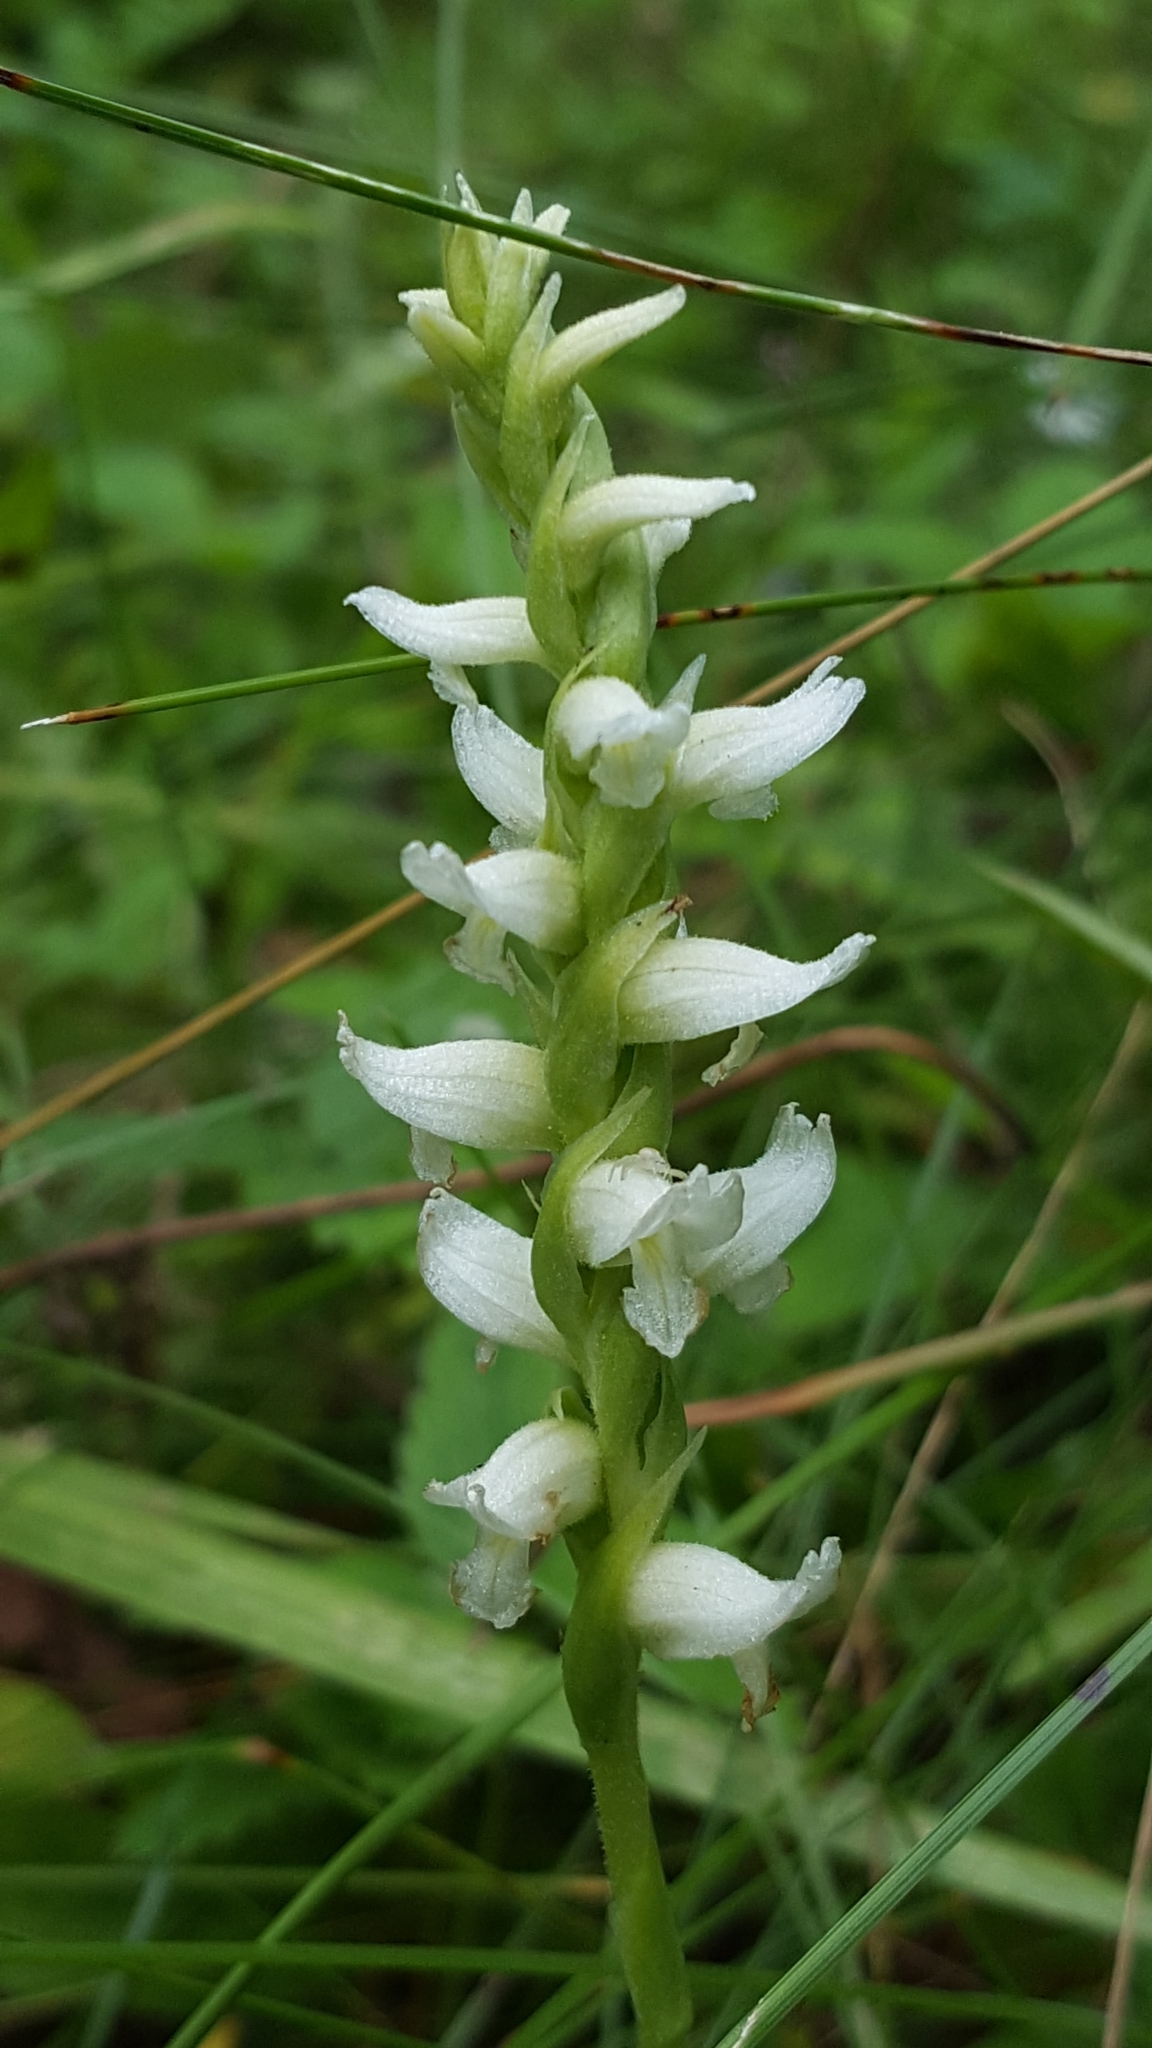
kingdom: Plantae
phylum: Tracheophyta
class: Liliopsida
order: Asparagales
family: Orchidaceae
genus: Spiranthes
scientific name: Spiranthes romanzoffiana
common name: Irish lady's-tresses
